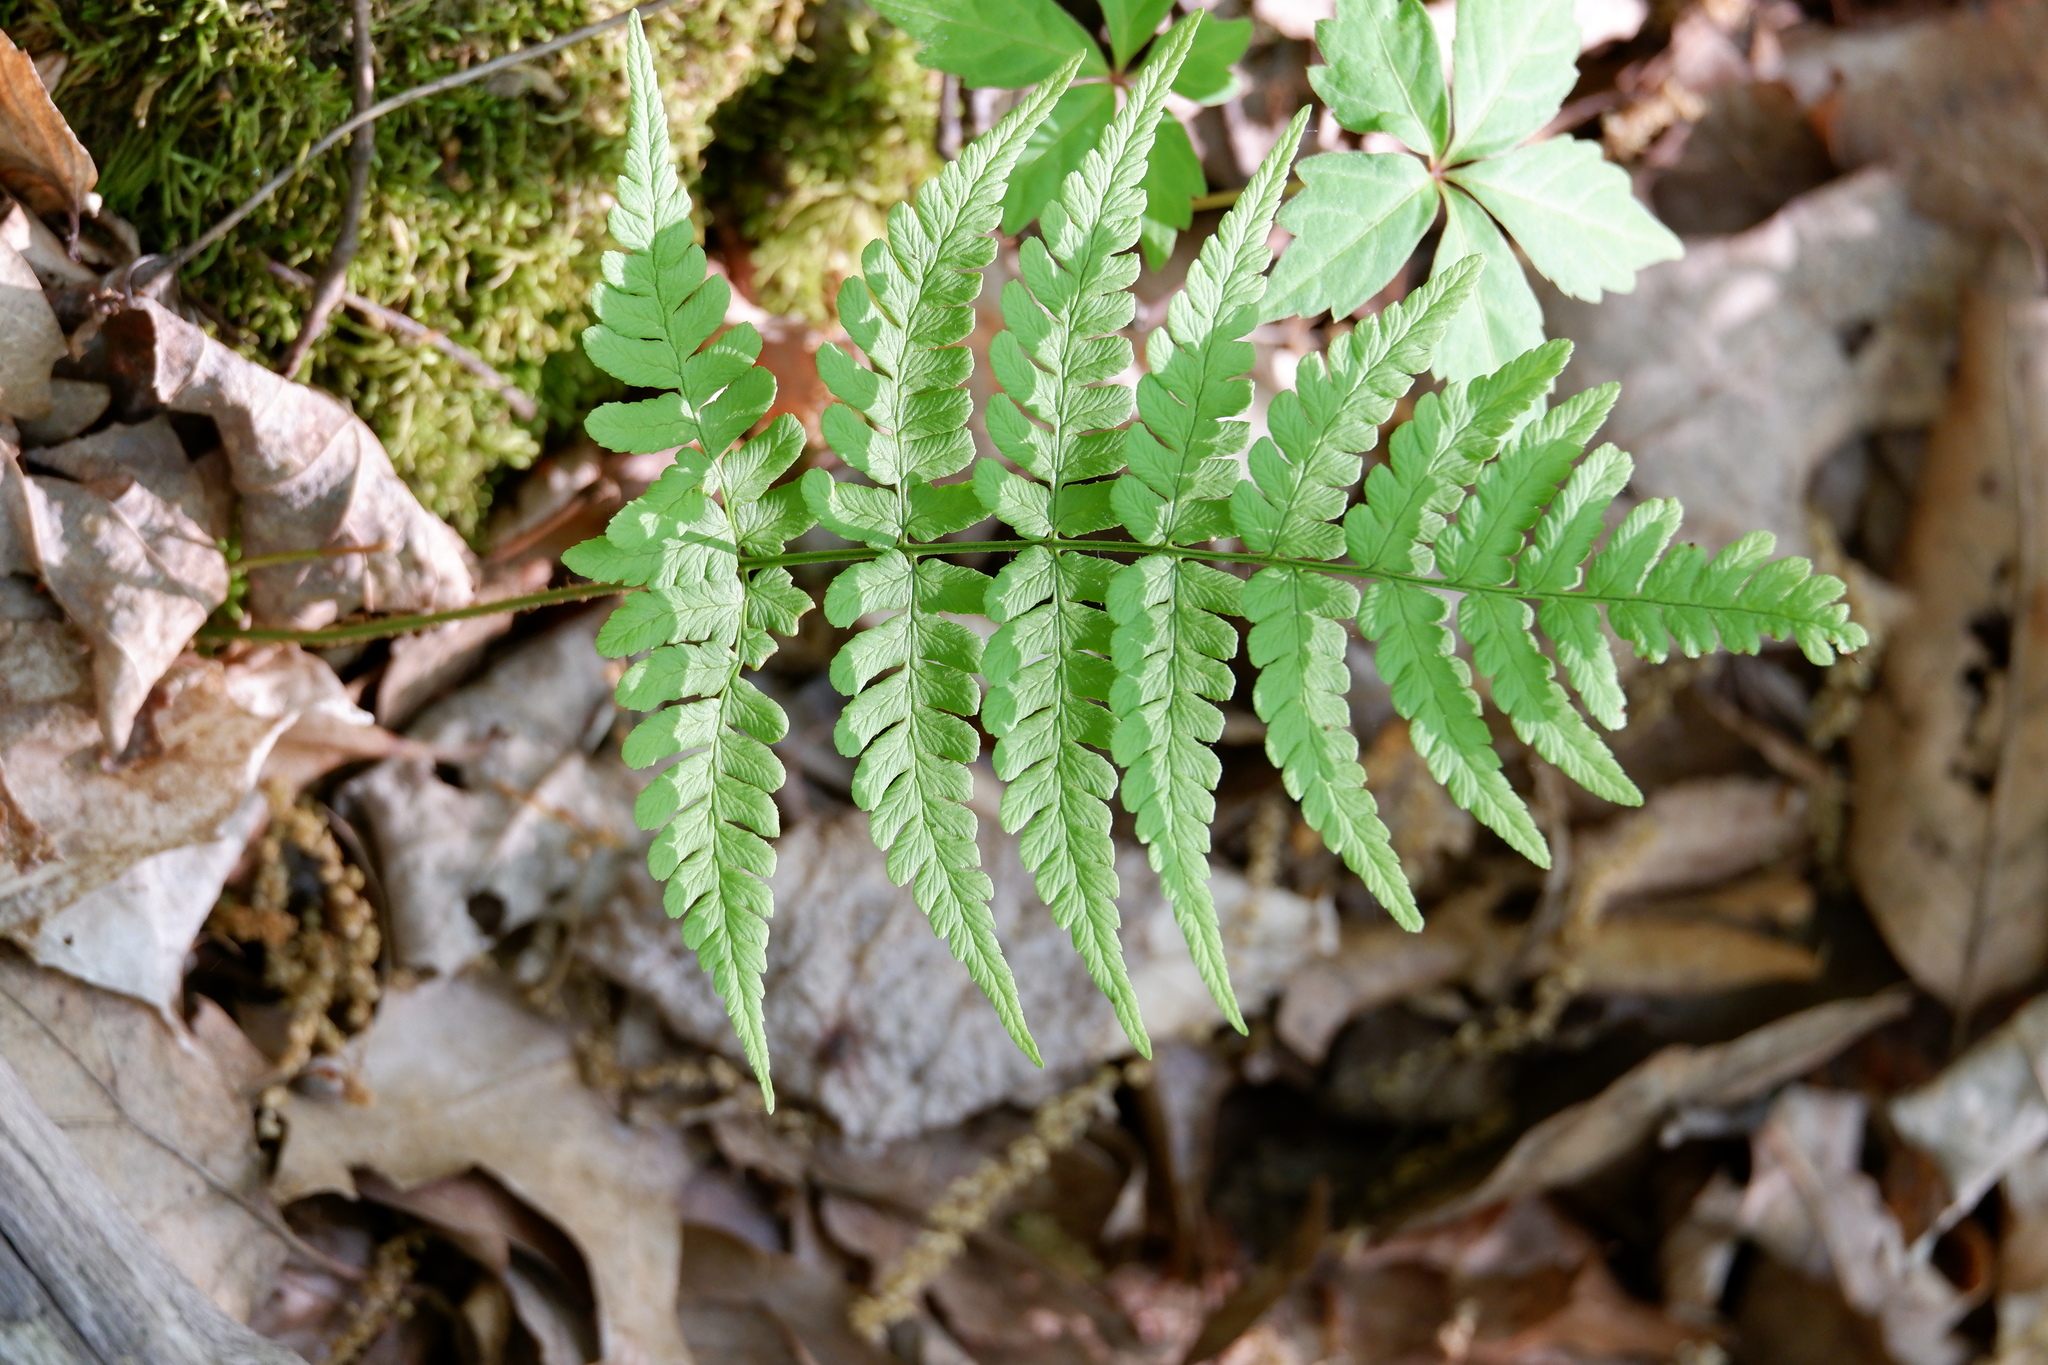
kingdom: Plantae
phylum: Tracheophyta
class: Polypodiopsida
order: Polypodiales
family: Dryopteridaceae
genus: Dryopteris
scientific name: Dryopteris marginalis
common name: Marginal wood fern
